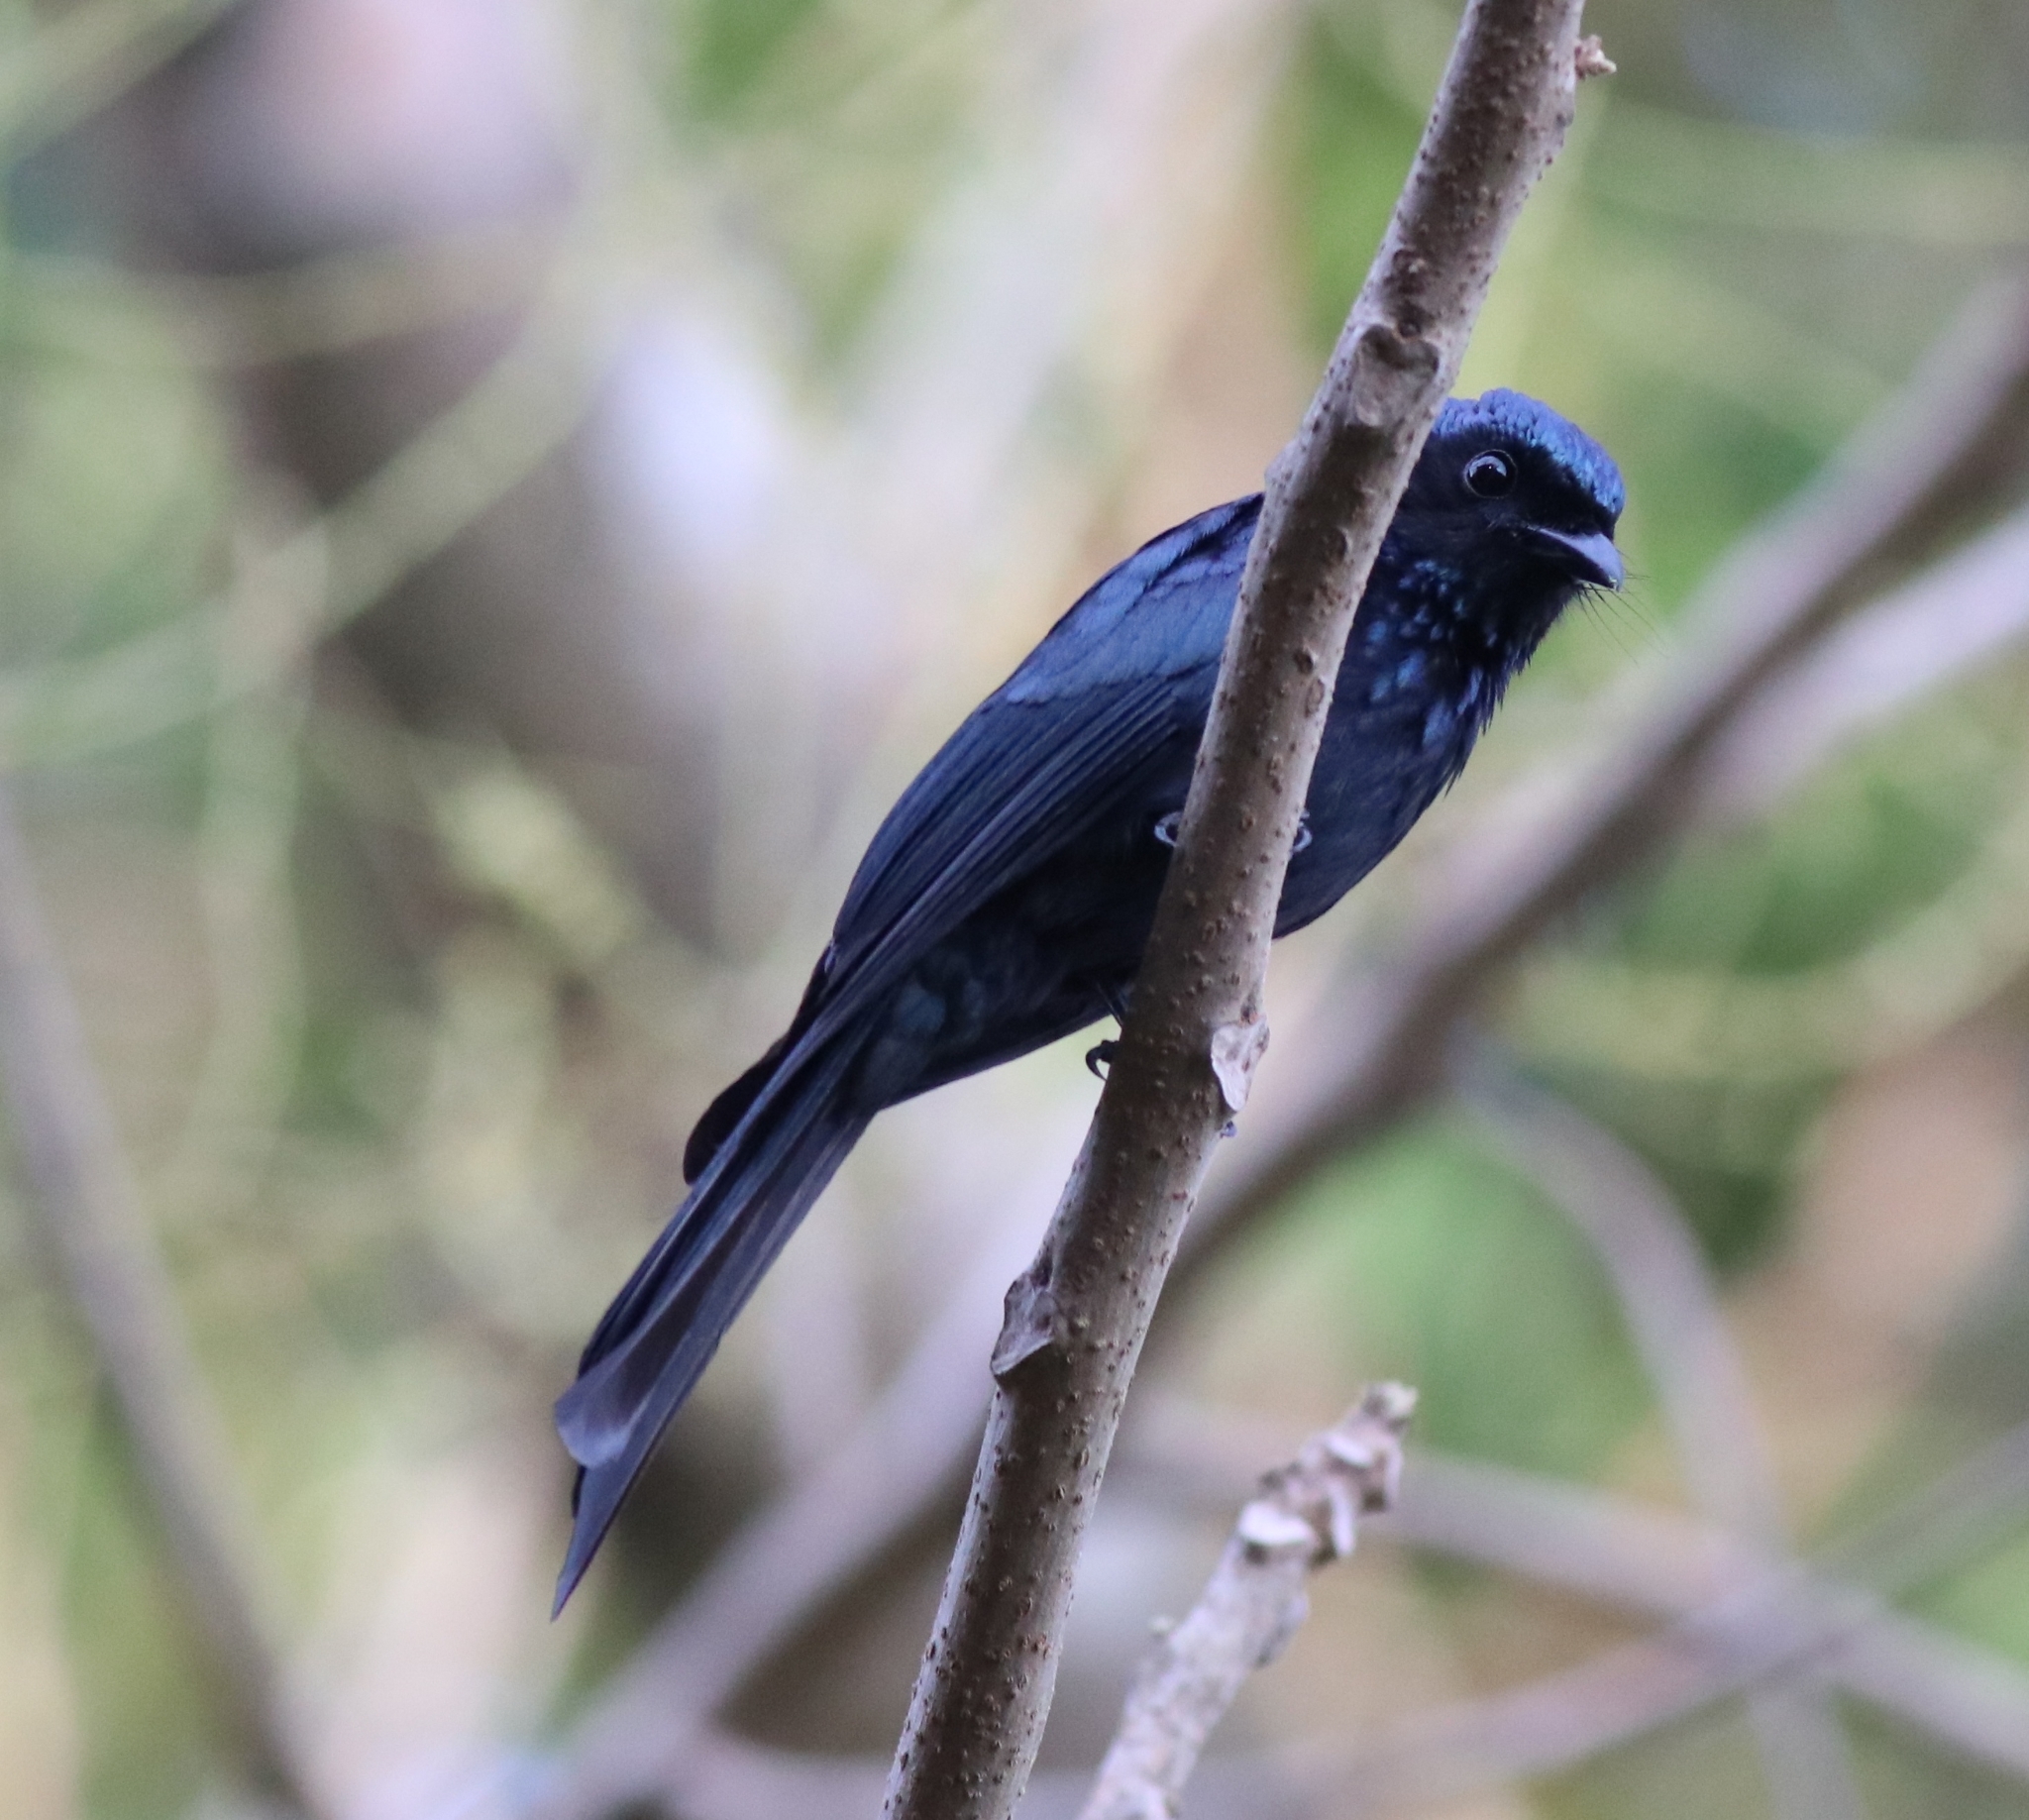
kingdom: Animalia
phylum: Chordata
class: Aves
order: Passeriformes
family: Dicruridae
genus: Dicrurus
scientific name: Dicrurus aeneus
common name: Bronzed drongo
